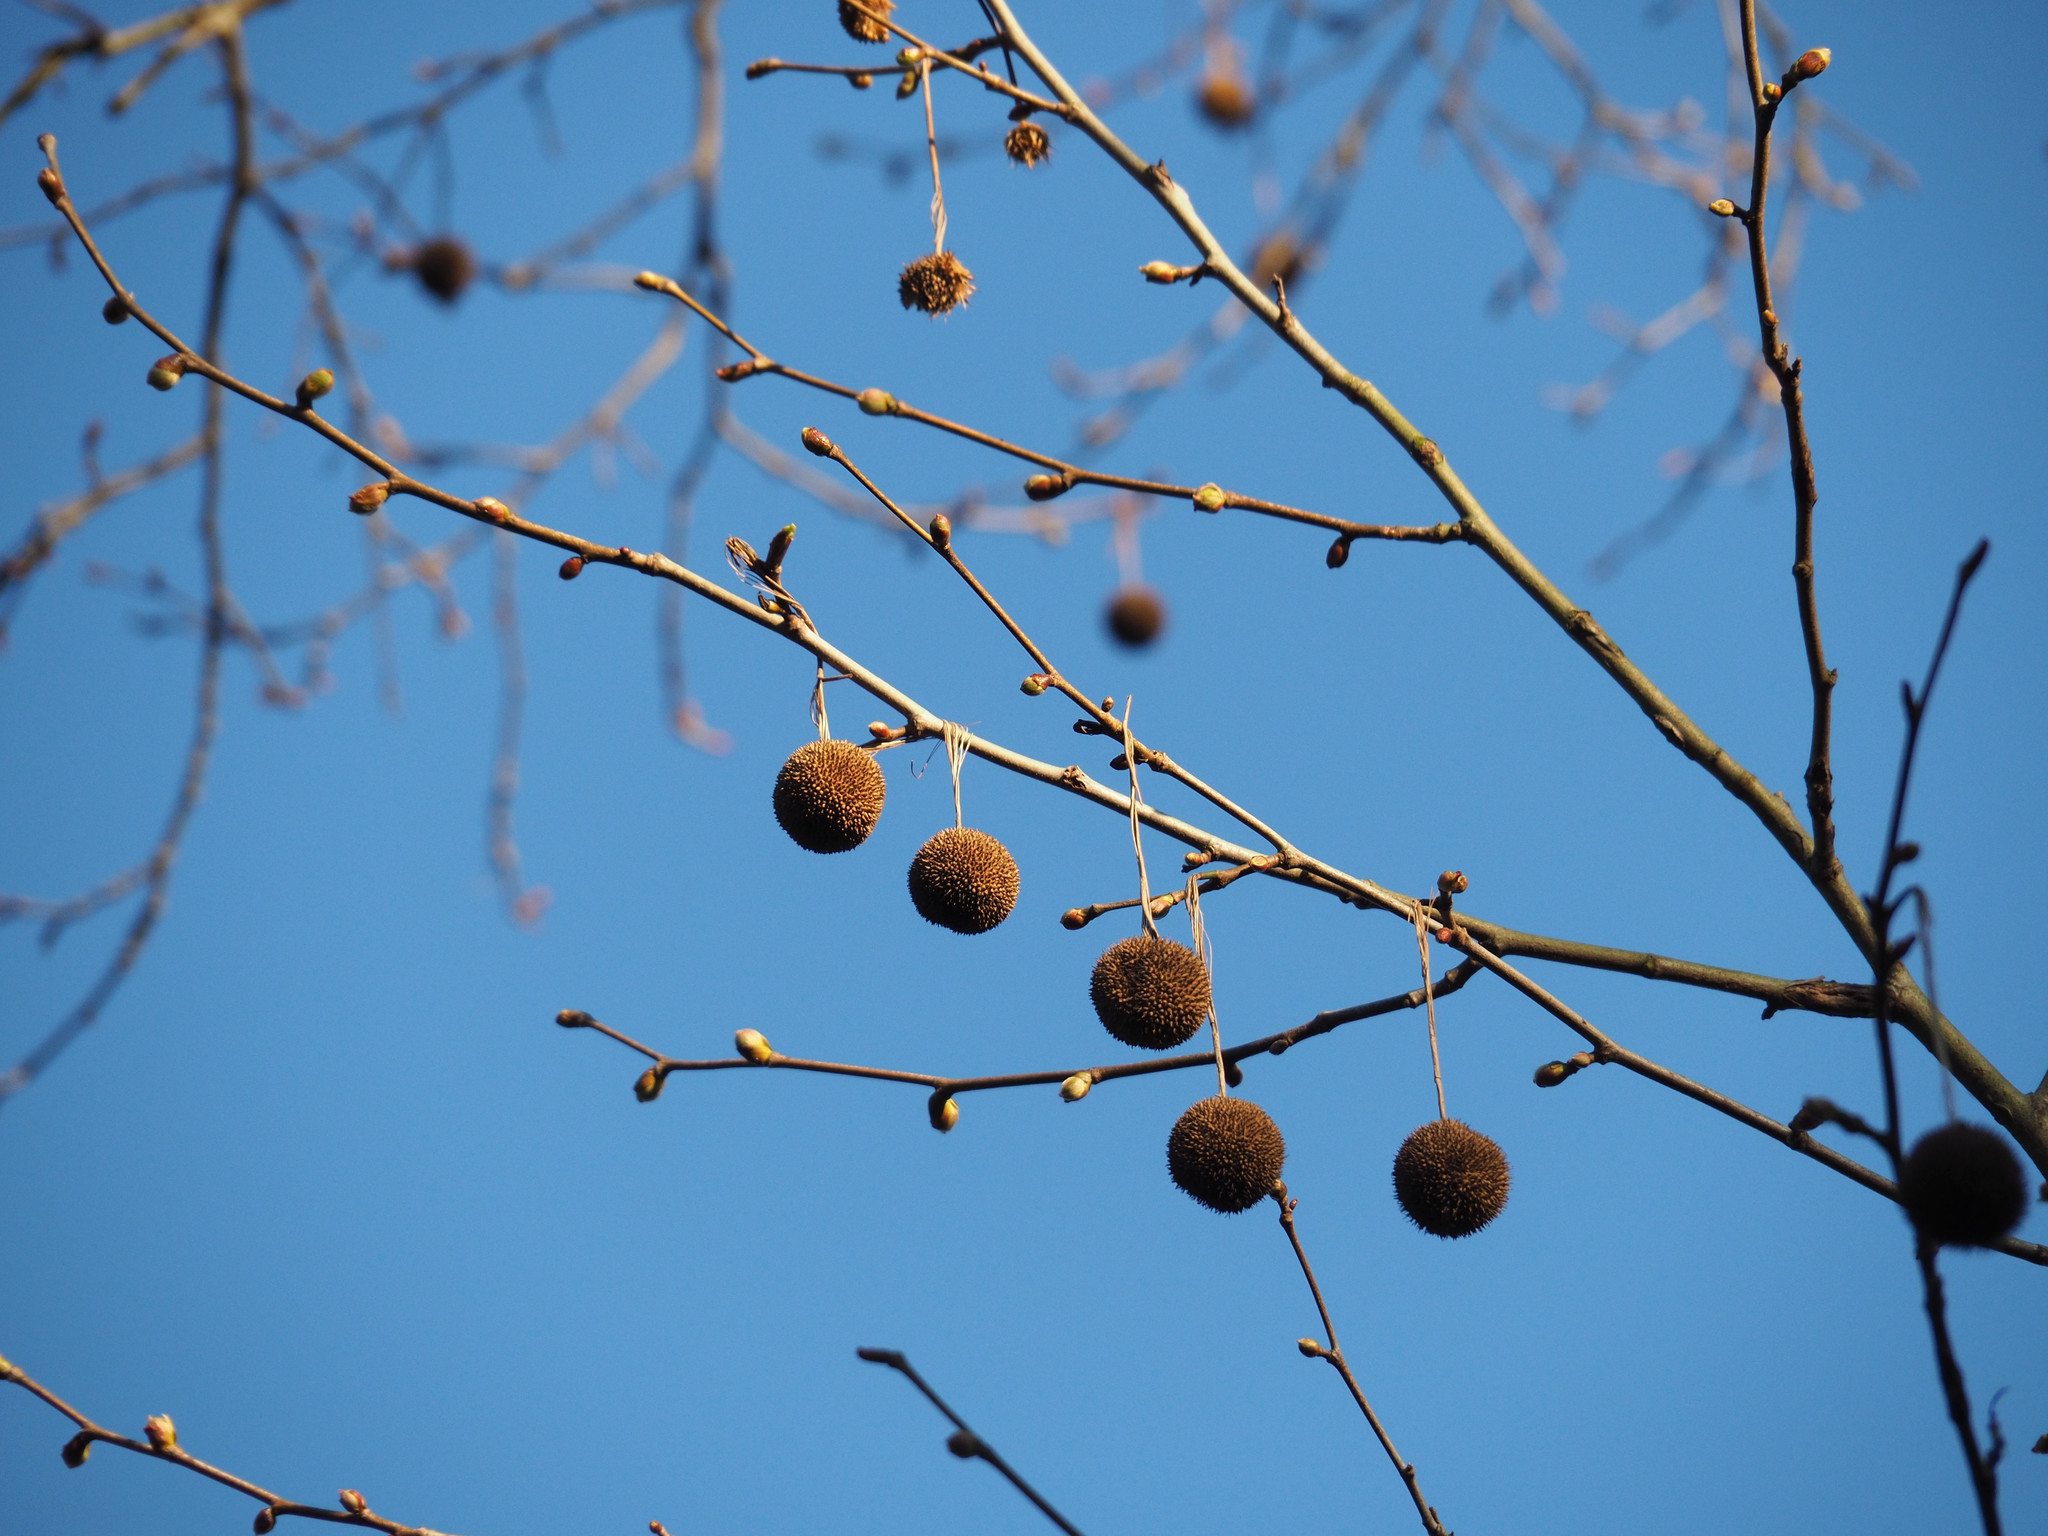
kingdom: Plantae
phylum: Tracheophyta
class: Magnoliopsida
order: Proteales
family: Platanaceae
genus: Platanus
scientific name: Platanus occidentalis
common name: American sycamore
